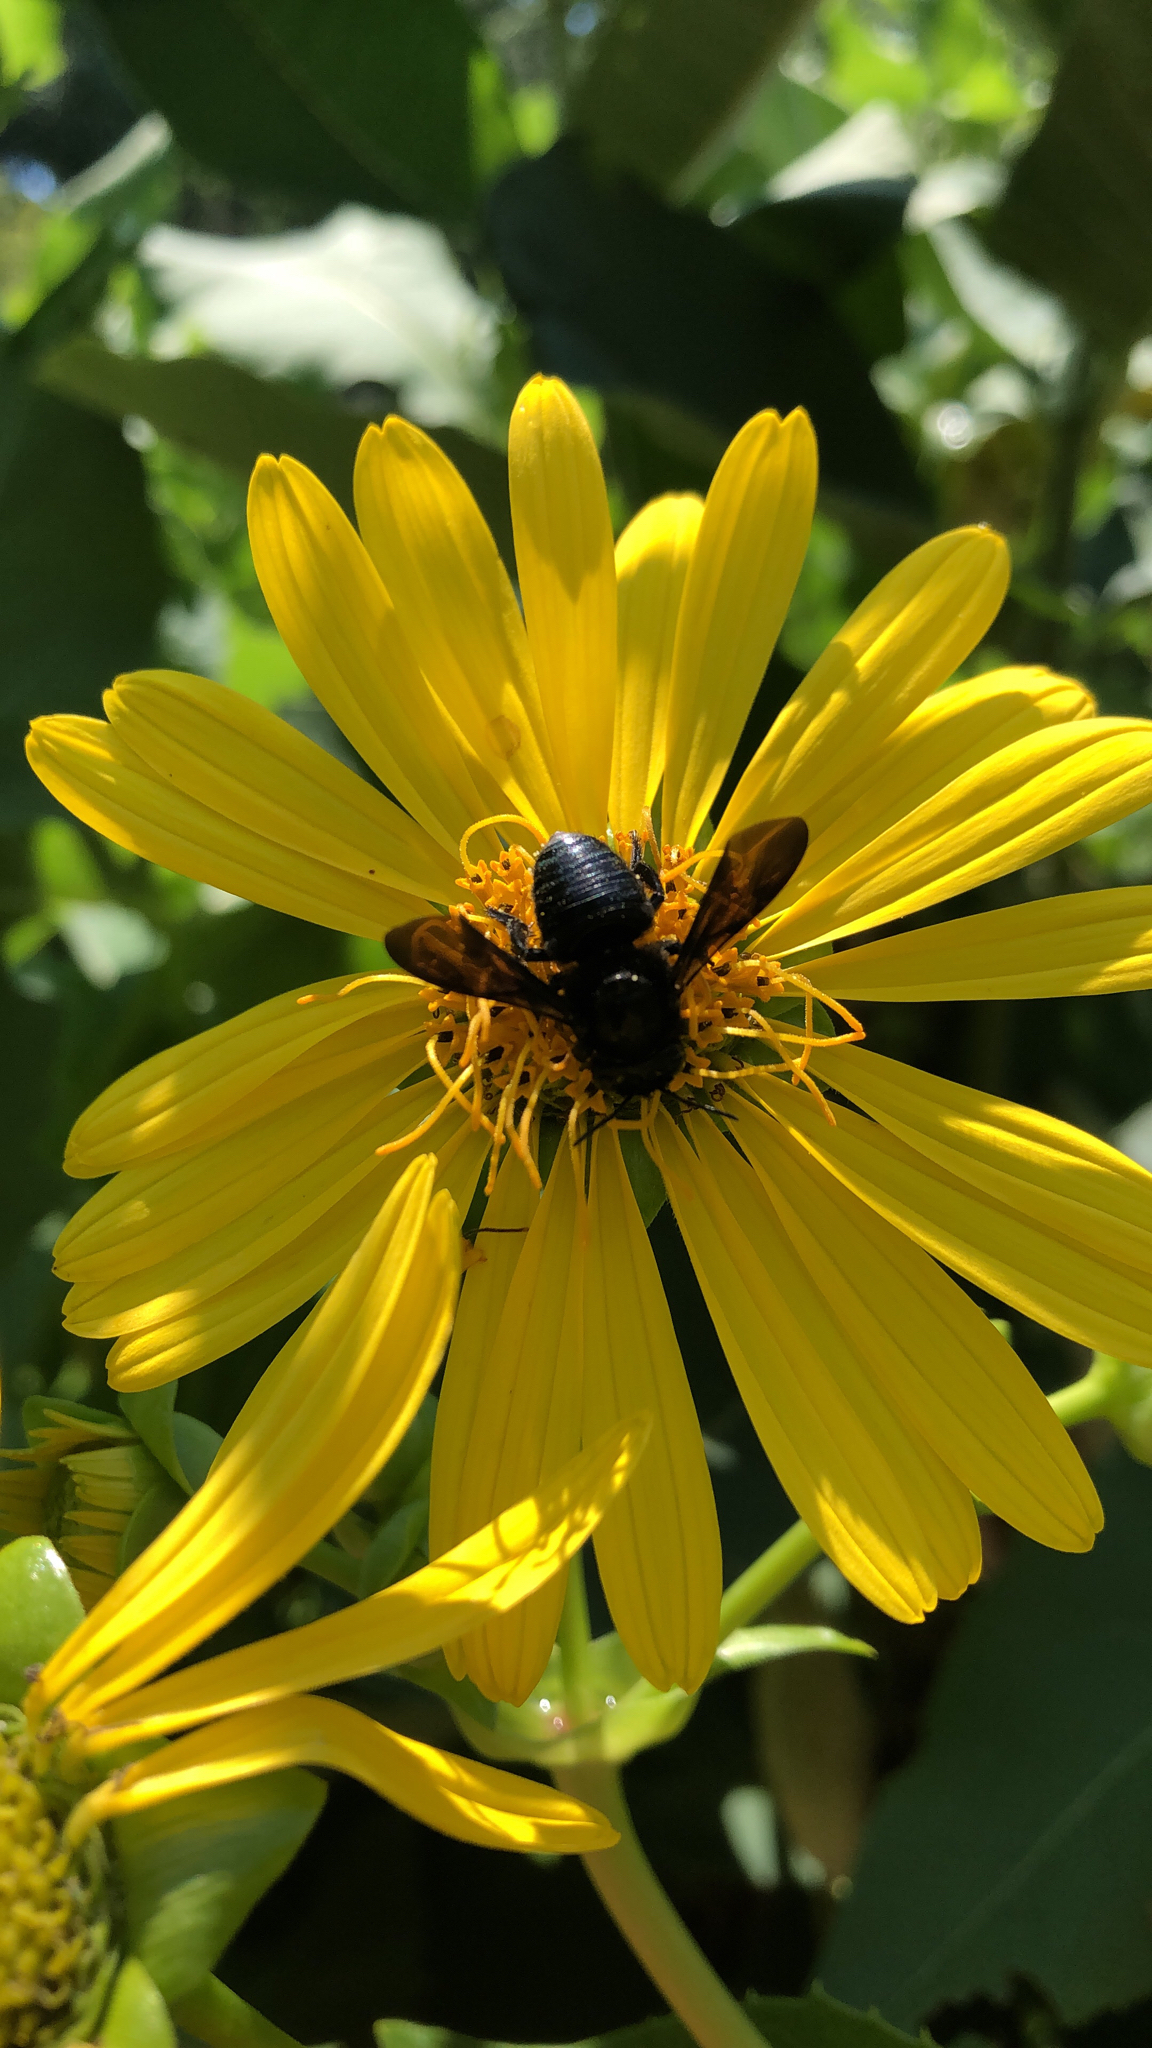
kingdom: Animalia
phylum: Arthropoda
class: Insecta
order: Hymenoptera
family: Megachilidae
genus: Megachile
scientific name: Megachile xylocopoides
